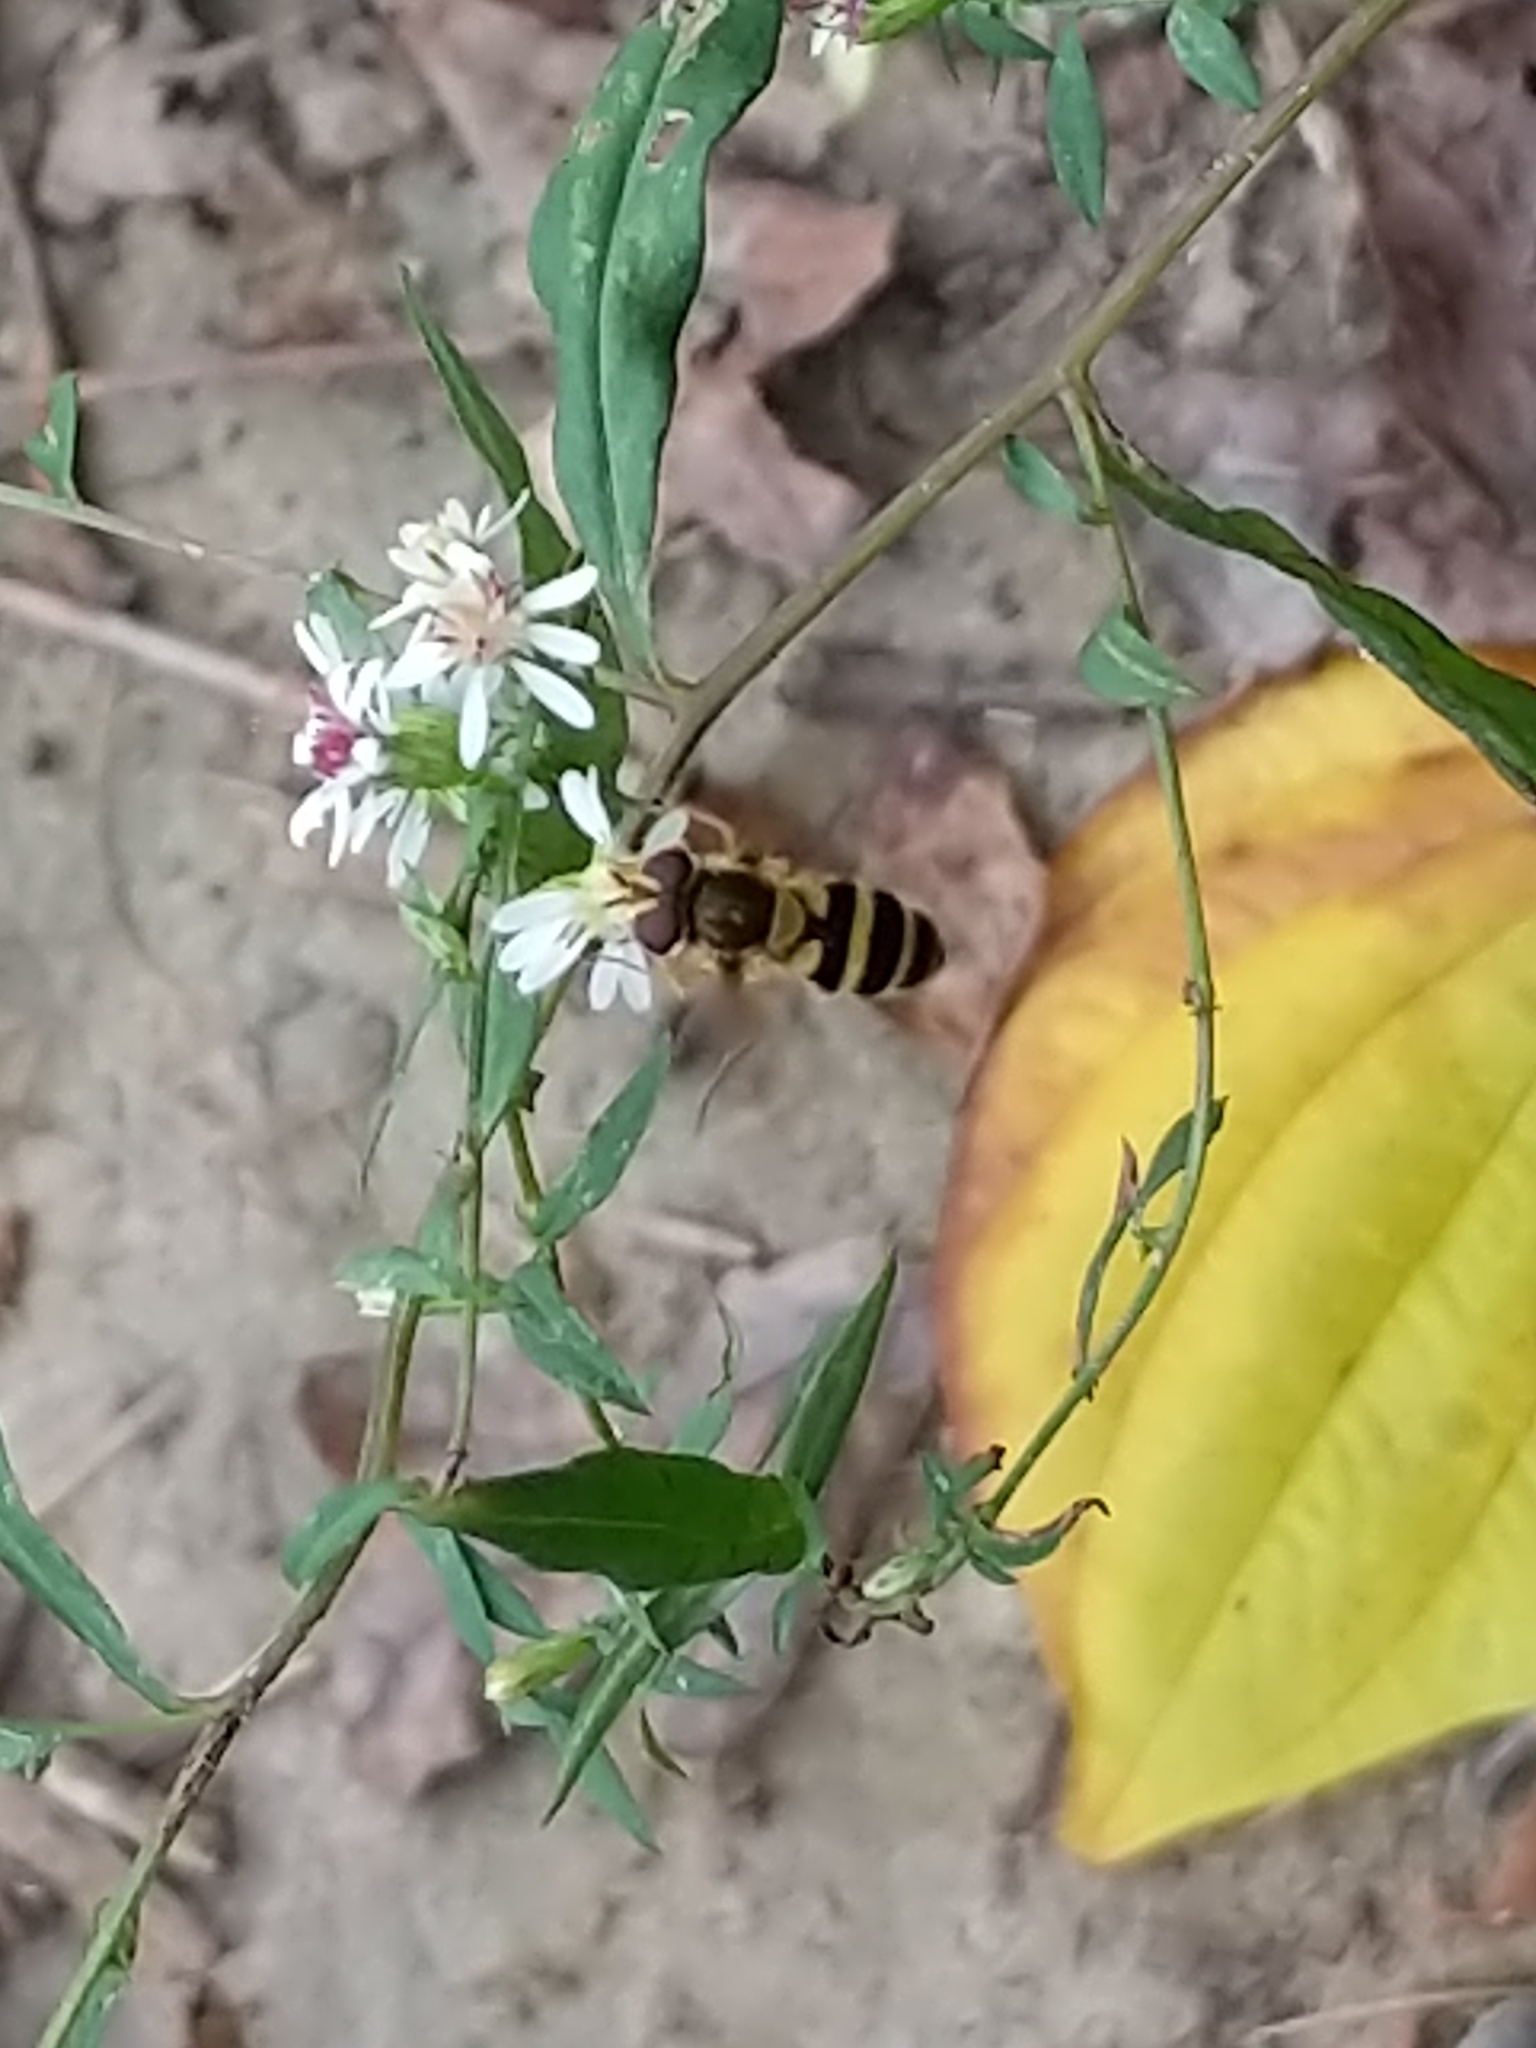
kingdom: Animalia
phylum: Arthropoda
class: Insecta
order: Diptera
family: Syrphidae
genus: Epistrophe
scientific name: Epistrophe grossulariae
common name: Black-horned smoothtail
